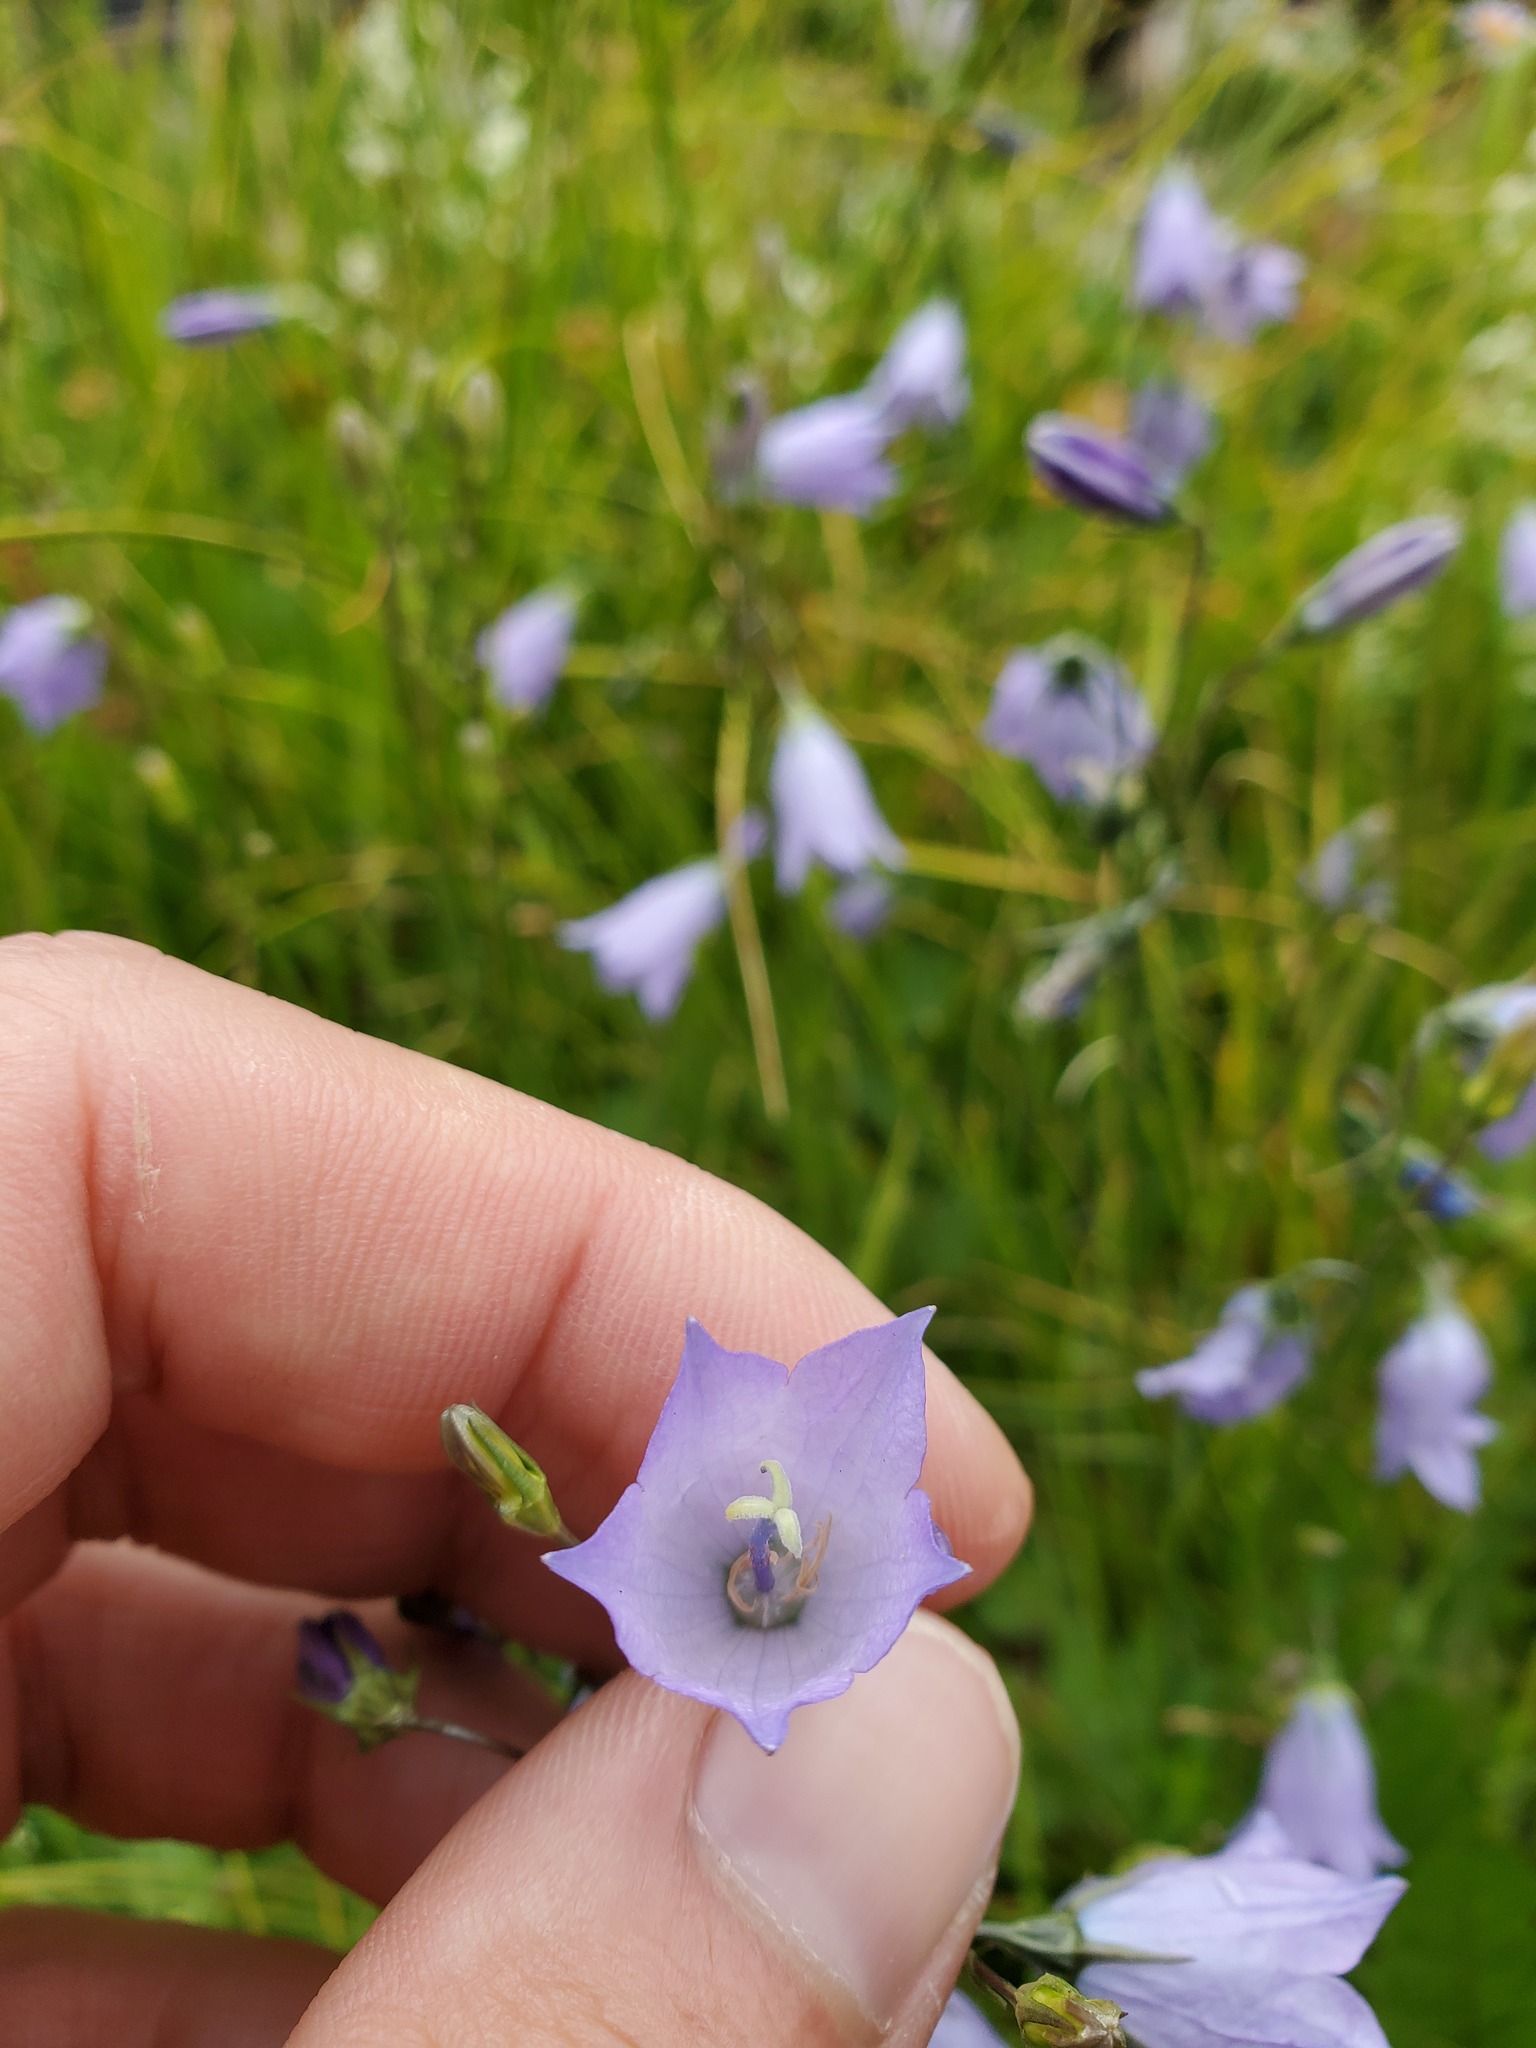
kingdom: Plantae
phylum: Tracheophyta
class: Magnoliopsida
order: Asterales
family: Campanulaceae
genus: Campanula
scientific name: Campanula petiolata
